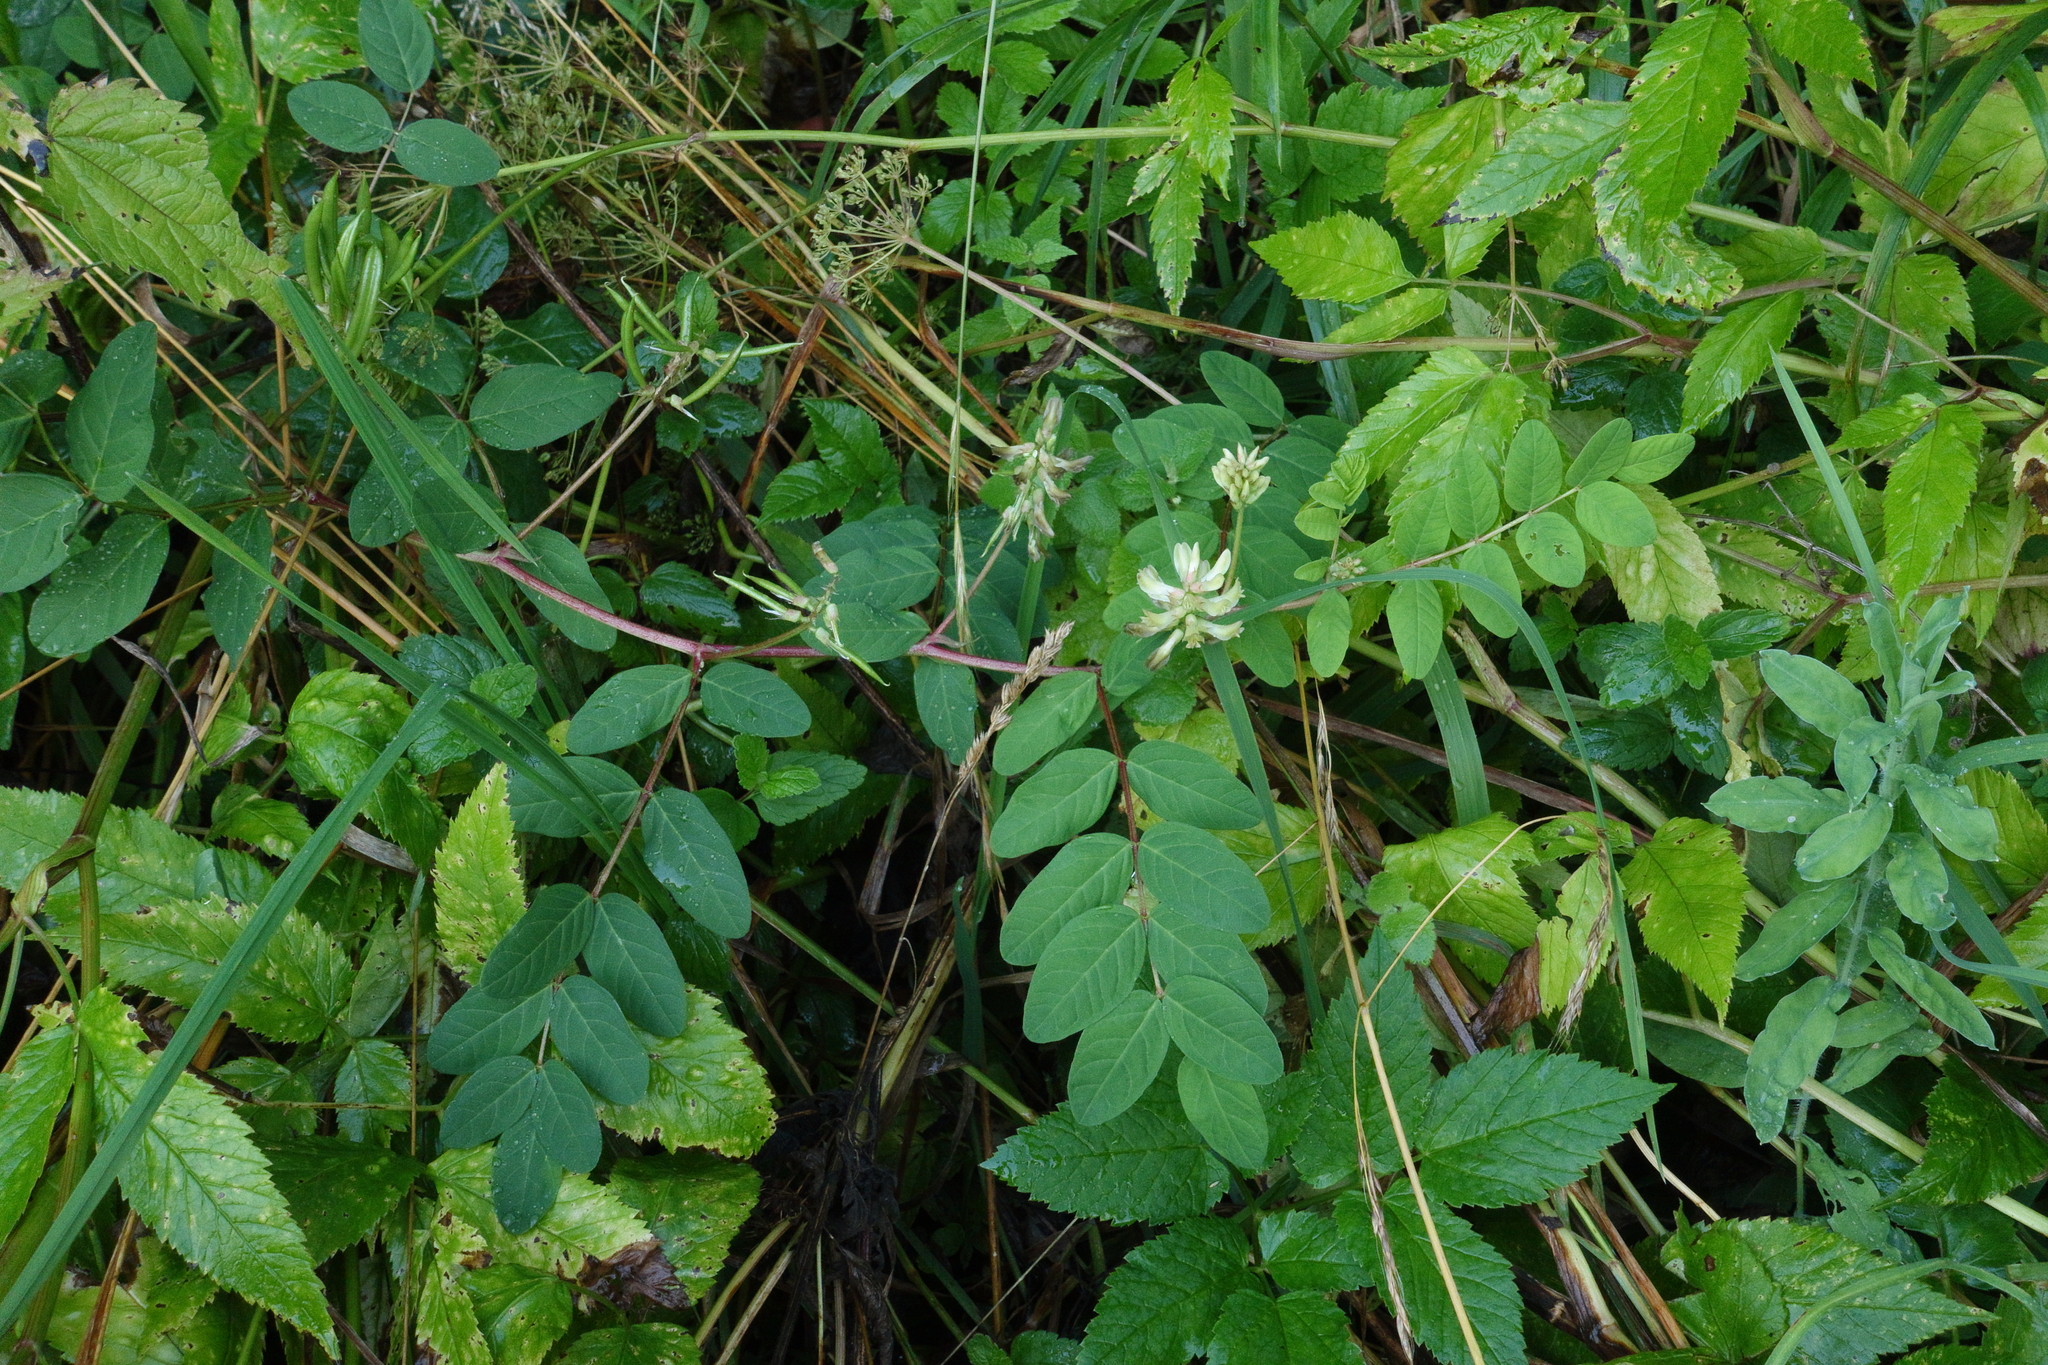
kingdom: Plantae
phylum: Tracheophyta
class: Magnoliopsida
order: Fabales
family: Fabaceae
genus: Astragalus
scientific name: Astragalus glycyphyllos
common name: Wild liquorice
